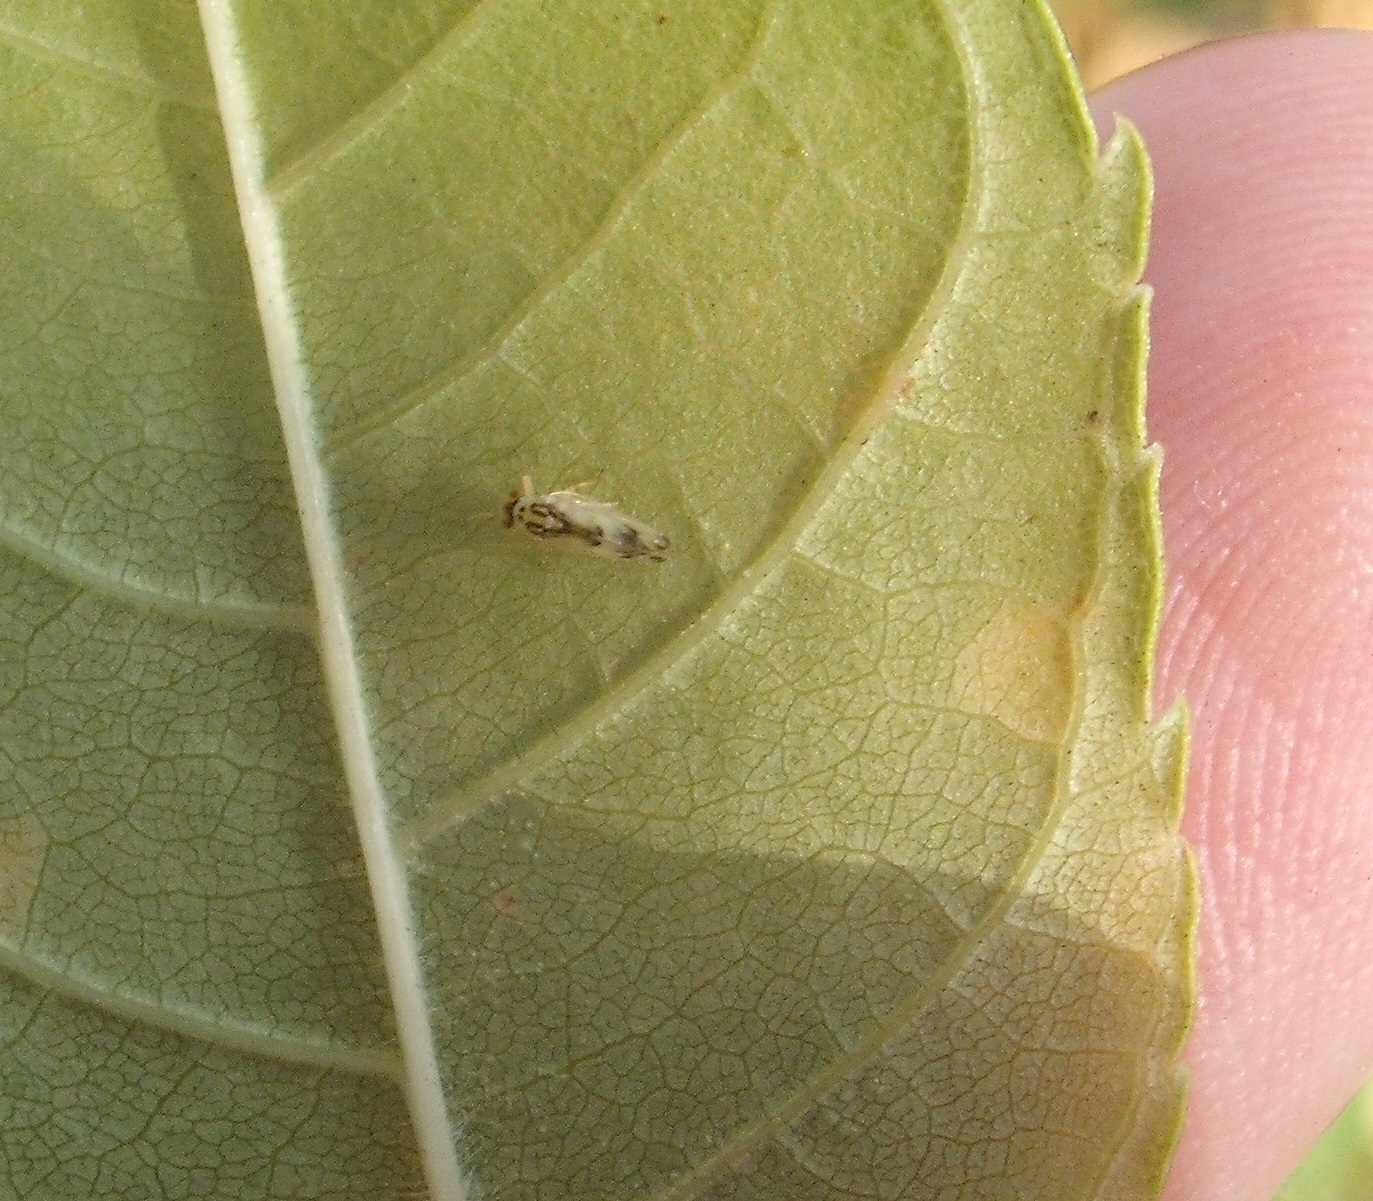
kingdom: Animalia
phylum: Arthropoda
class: Insecta
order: Hemiptera
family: Liviidae
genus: Psyllopsis
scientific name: Psyllopsis fraxini
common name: Jumping plant louse
